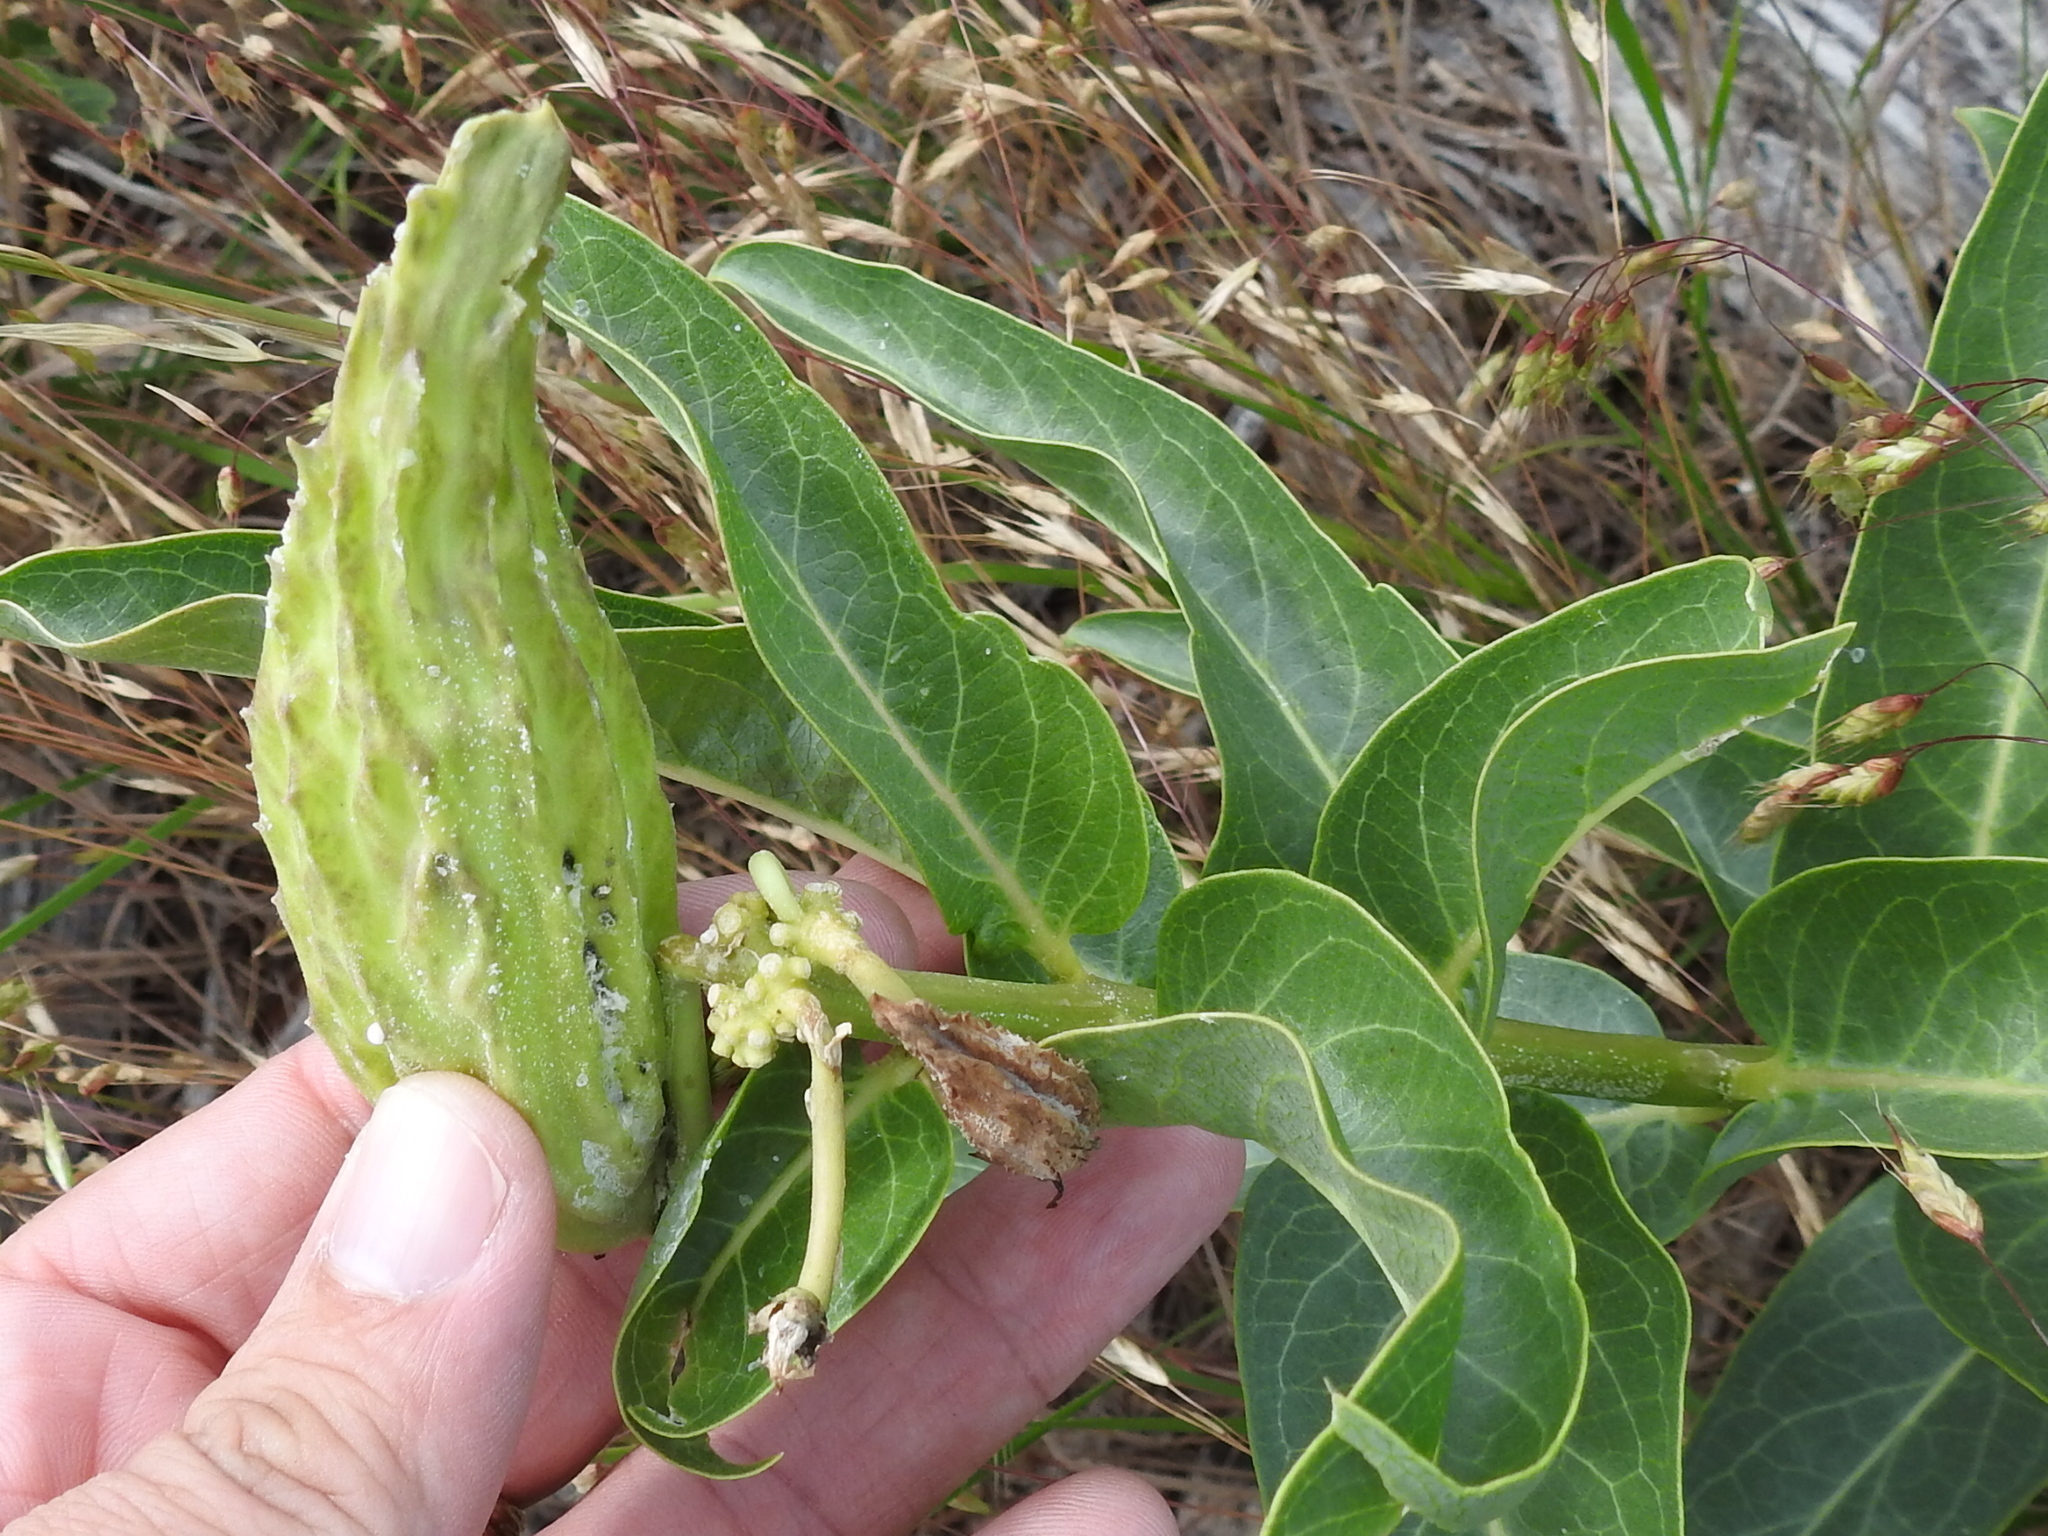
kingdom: Plantae
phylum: Tracheophyta
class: Magnoliopsida
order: Gentianales
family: Apocynaceae
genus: Asclepias
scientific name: Asclepias viridis
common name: Antelope-horns
